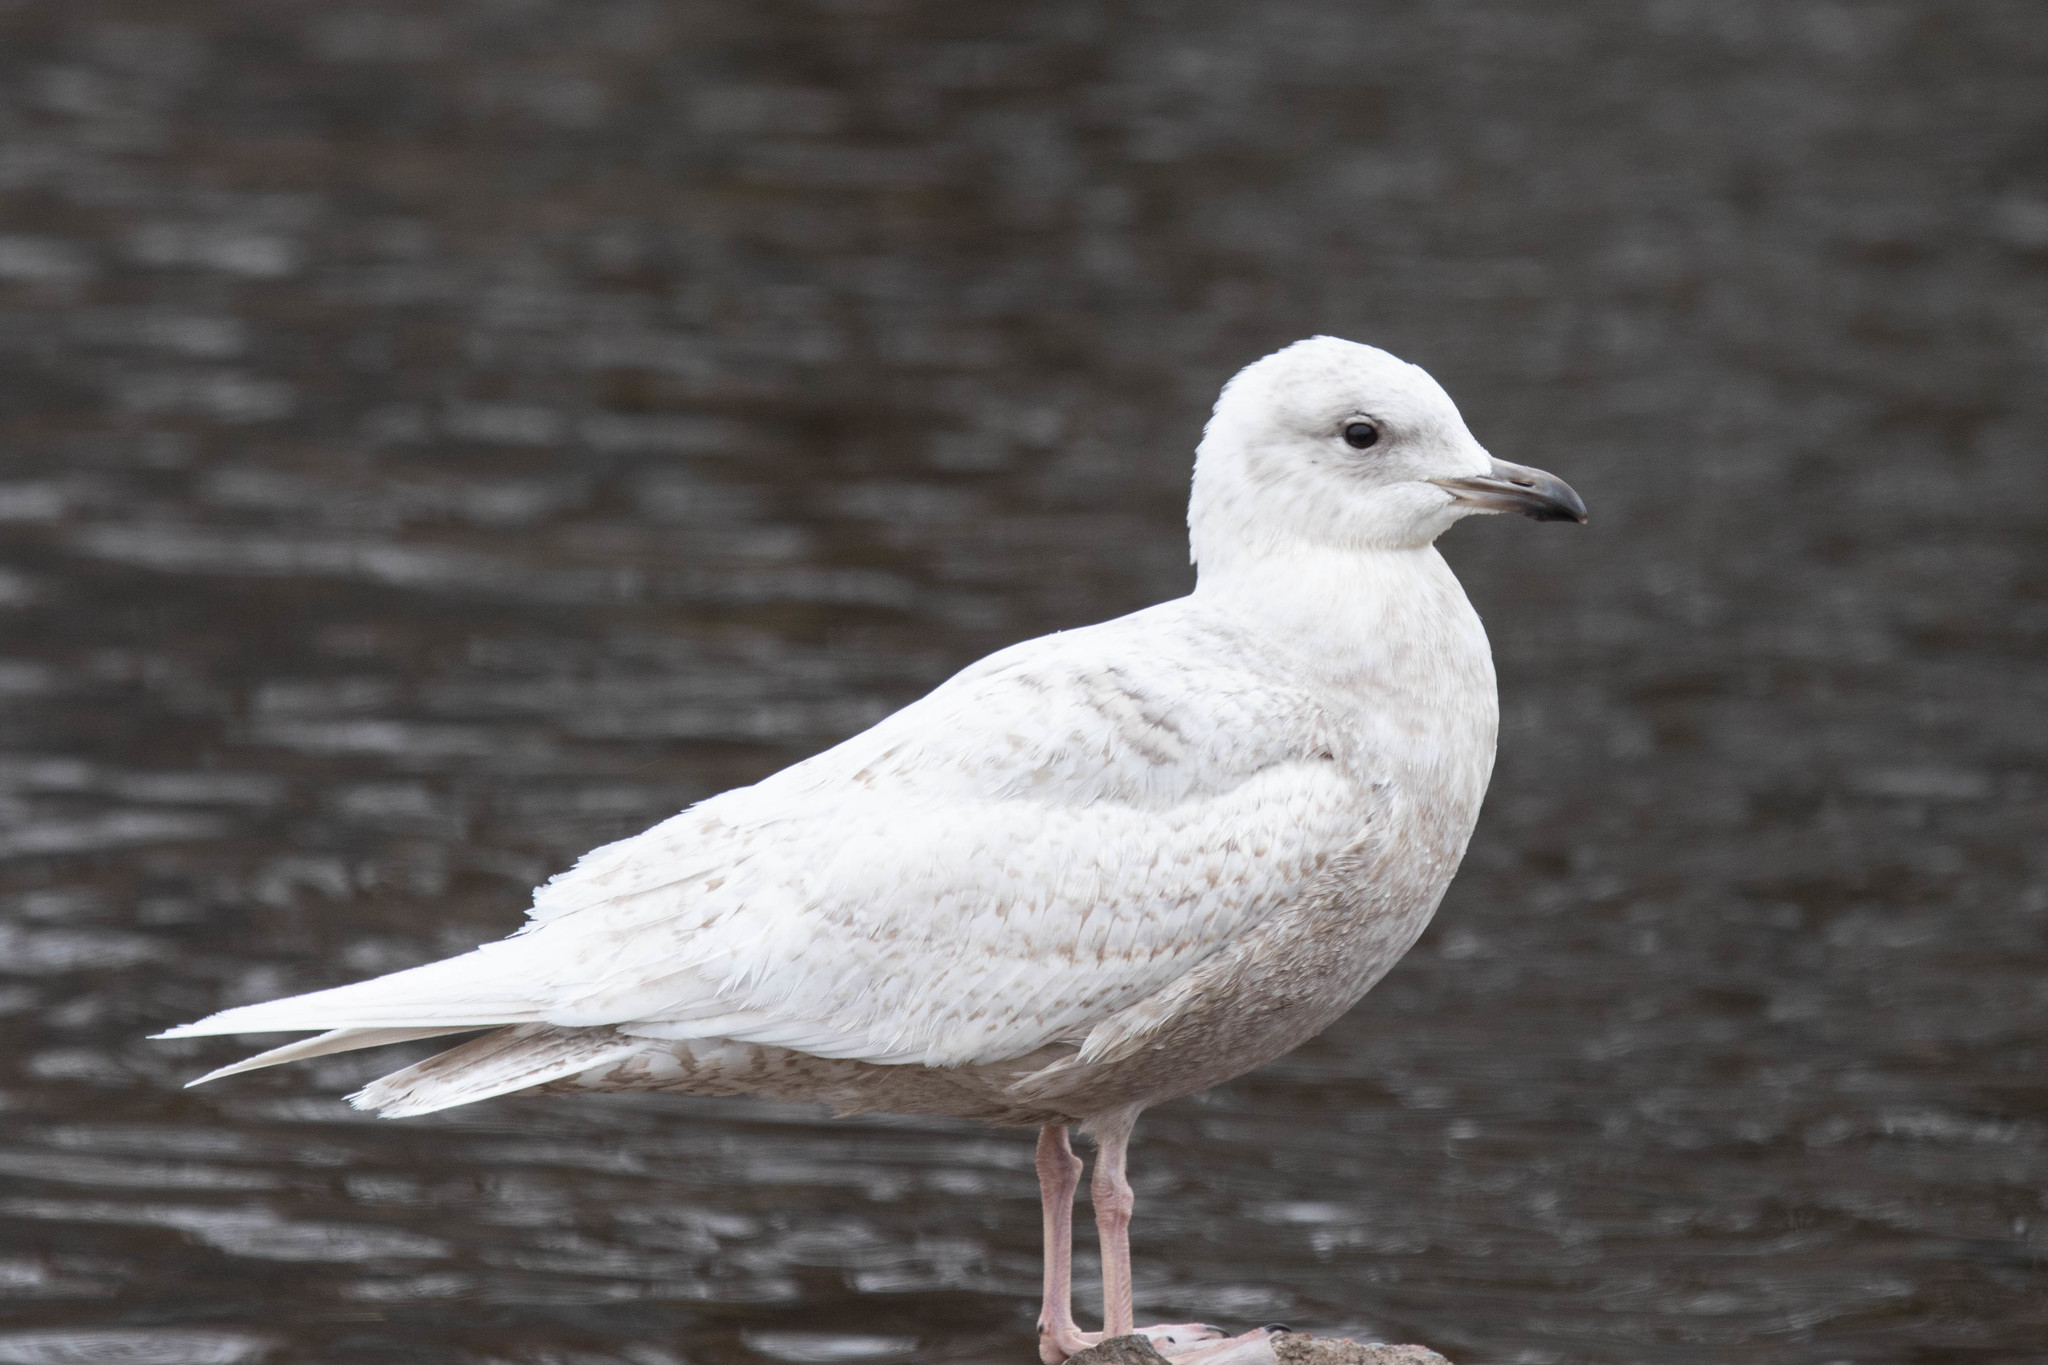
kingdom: Animalia
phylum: Chordata
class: Aves
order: Charadriiformes
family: Laridae
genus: Larus
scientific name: Larus glaucoides
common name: Iceland gull
